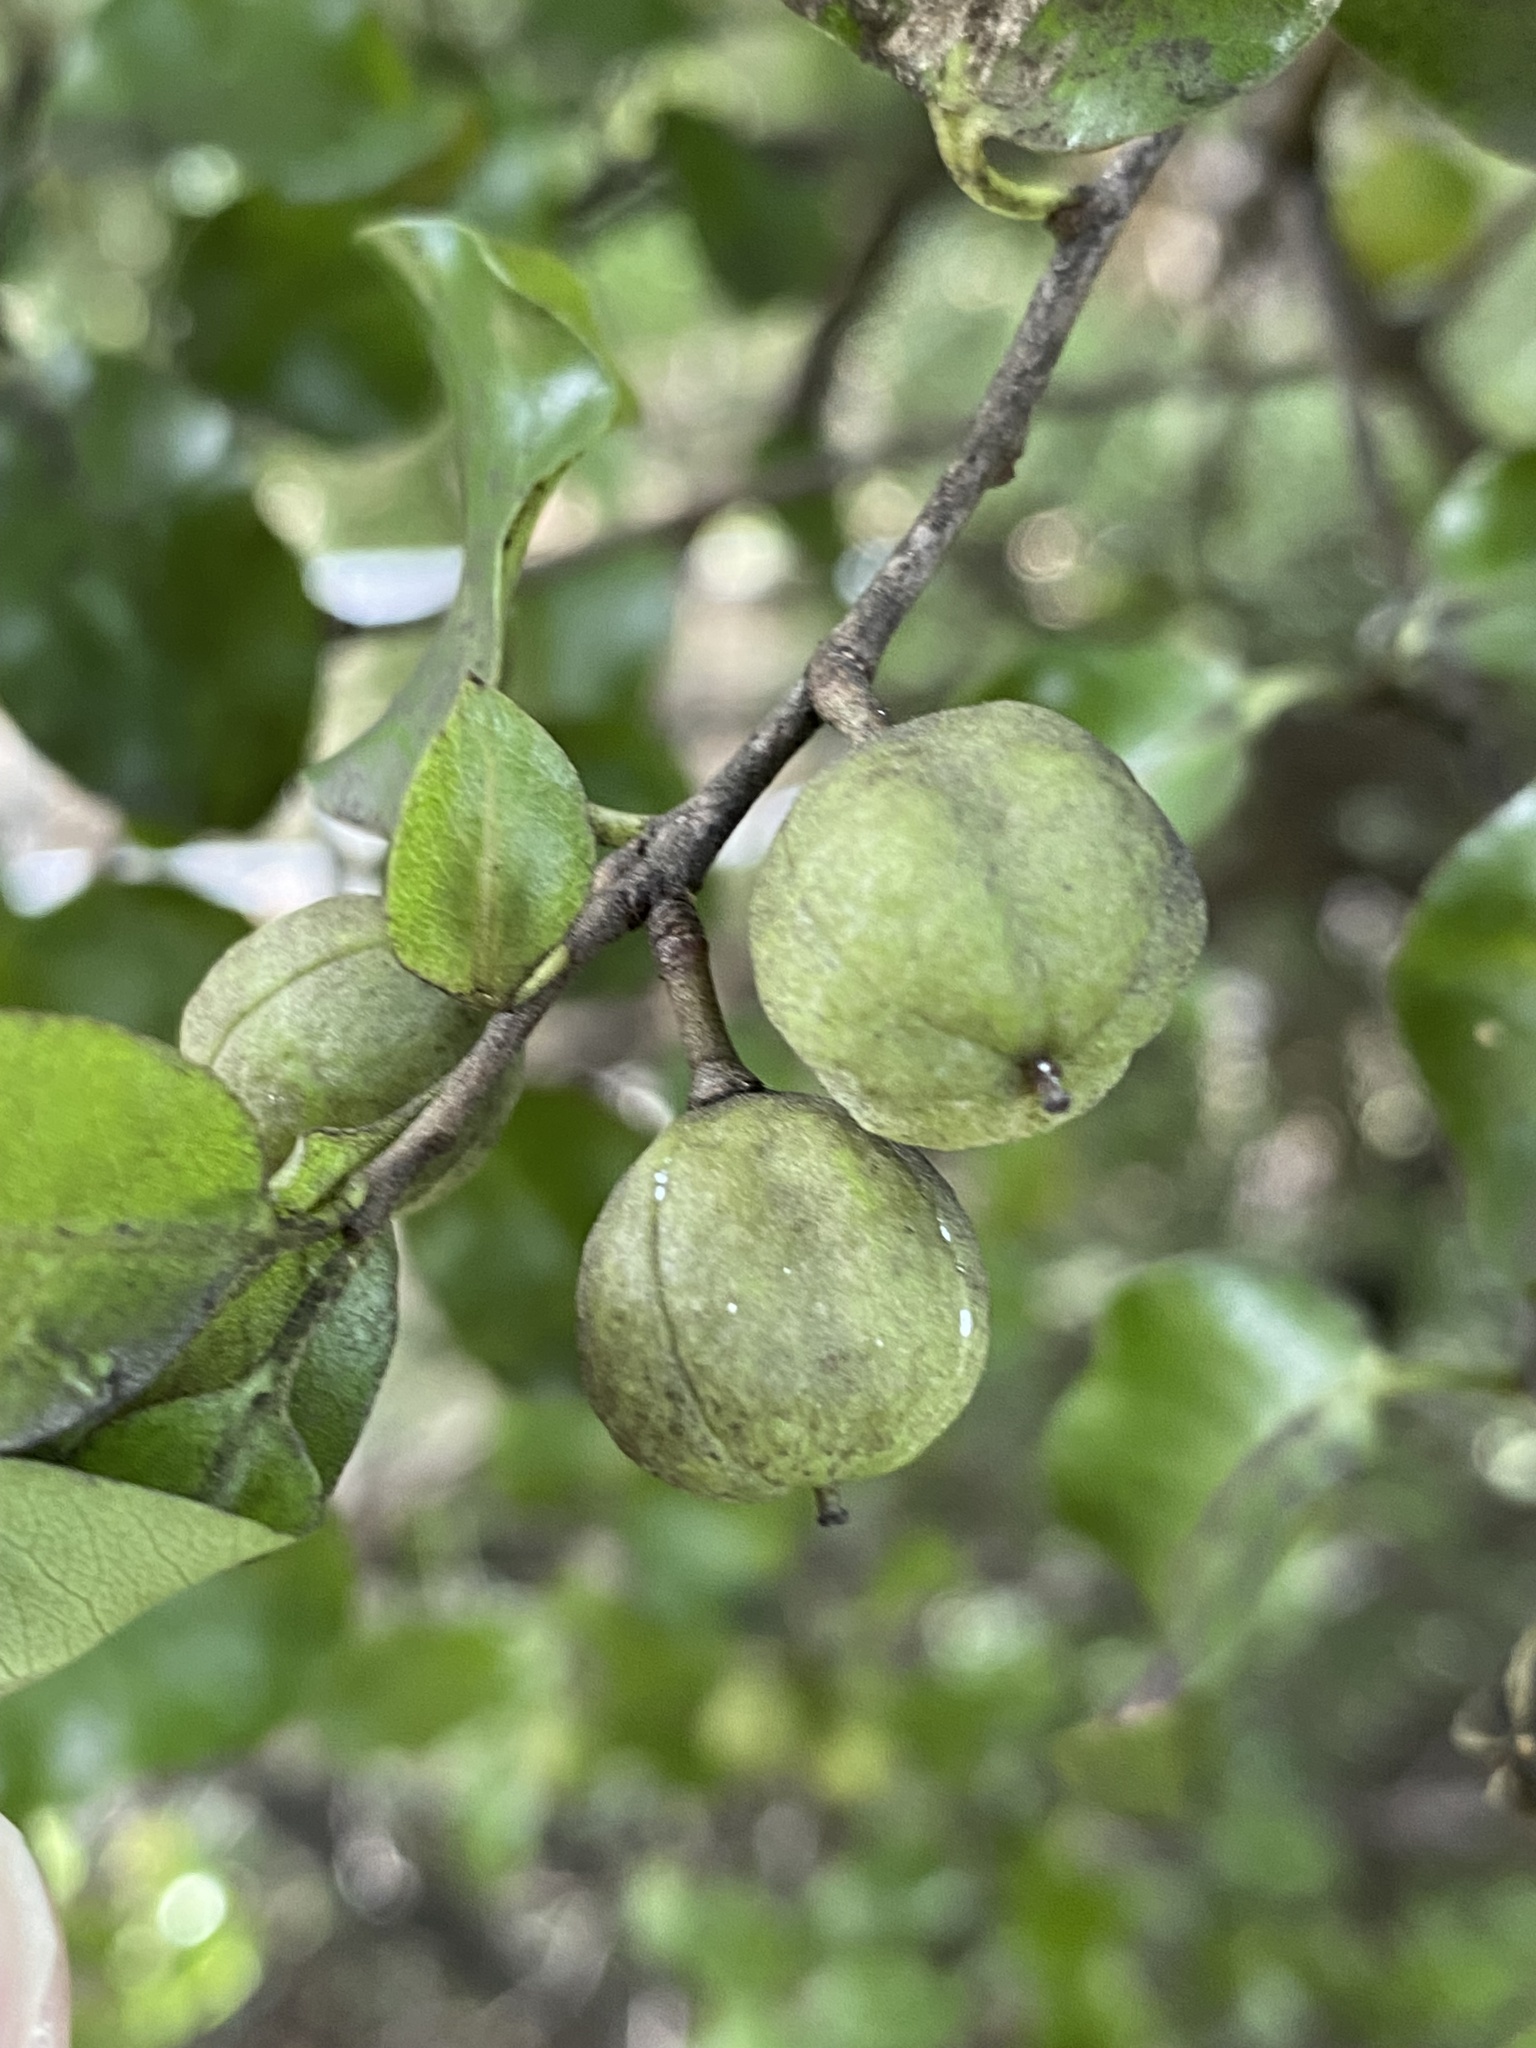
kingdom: Plantae
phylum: Tracheophyta
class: Magnoliopsida
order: Apiales
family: Pittosporaceae
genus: Pittosporum
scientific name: Pittosporum tenuifolium
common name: Kohuhu
